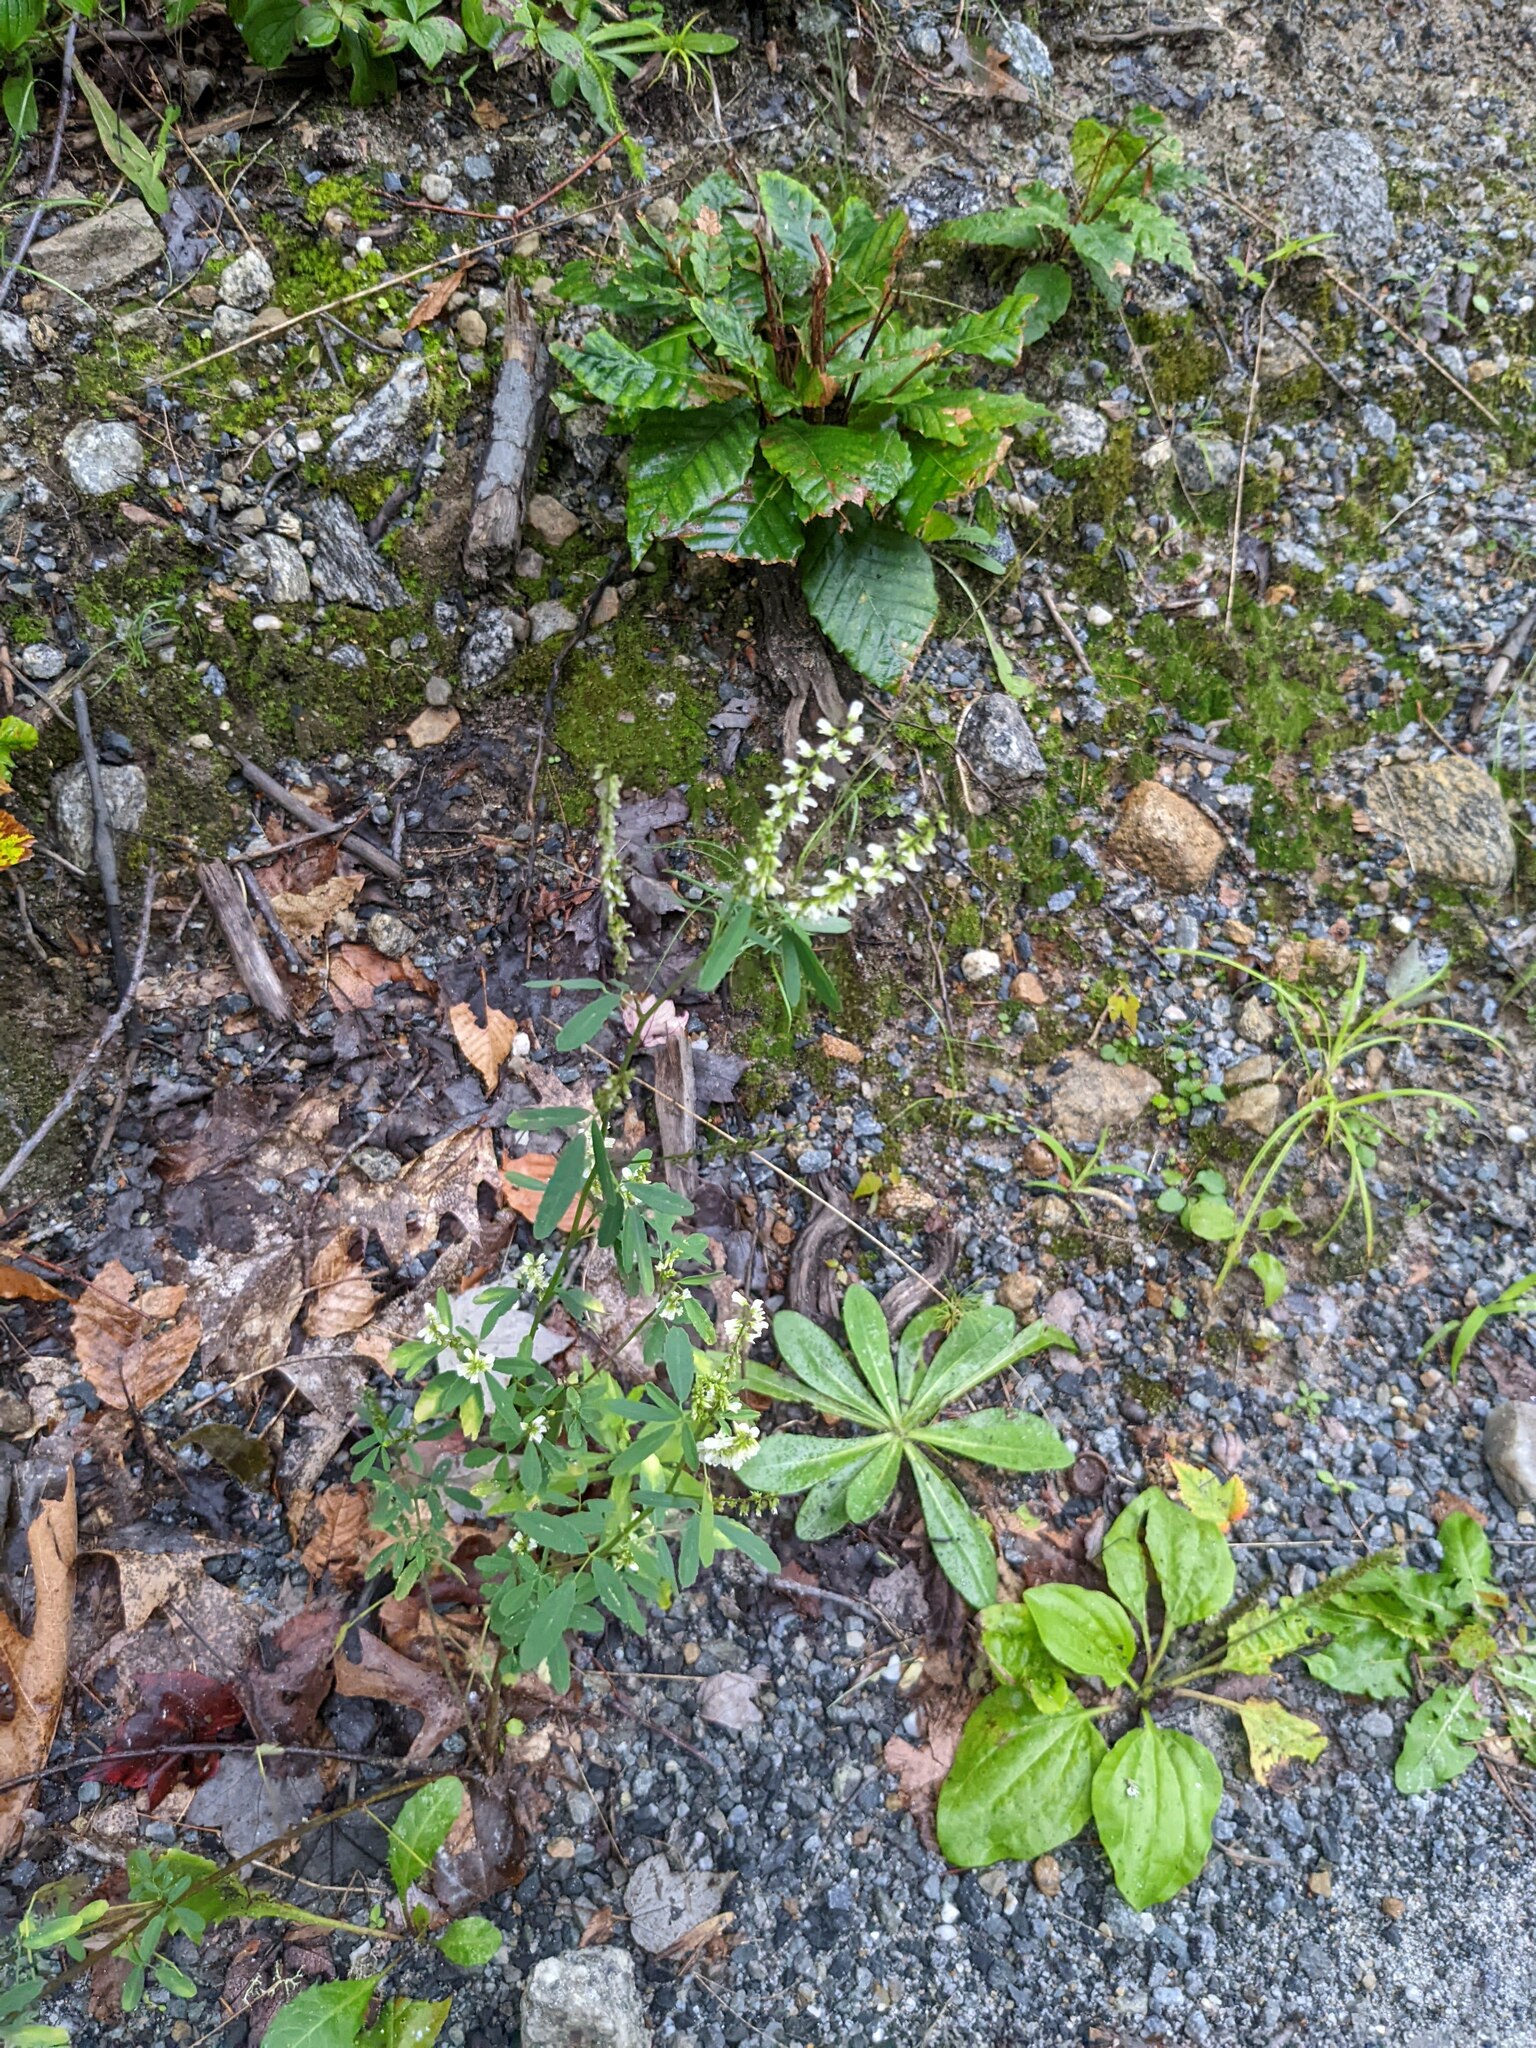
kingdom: Plantae
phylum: Tracheophyta
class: Magnoliopsida
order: Fabales
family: Fabaceae
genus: Melilotus
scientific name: Melilotus albus
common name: White melilot
